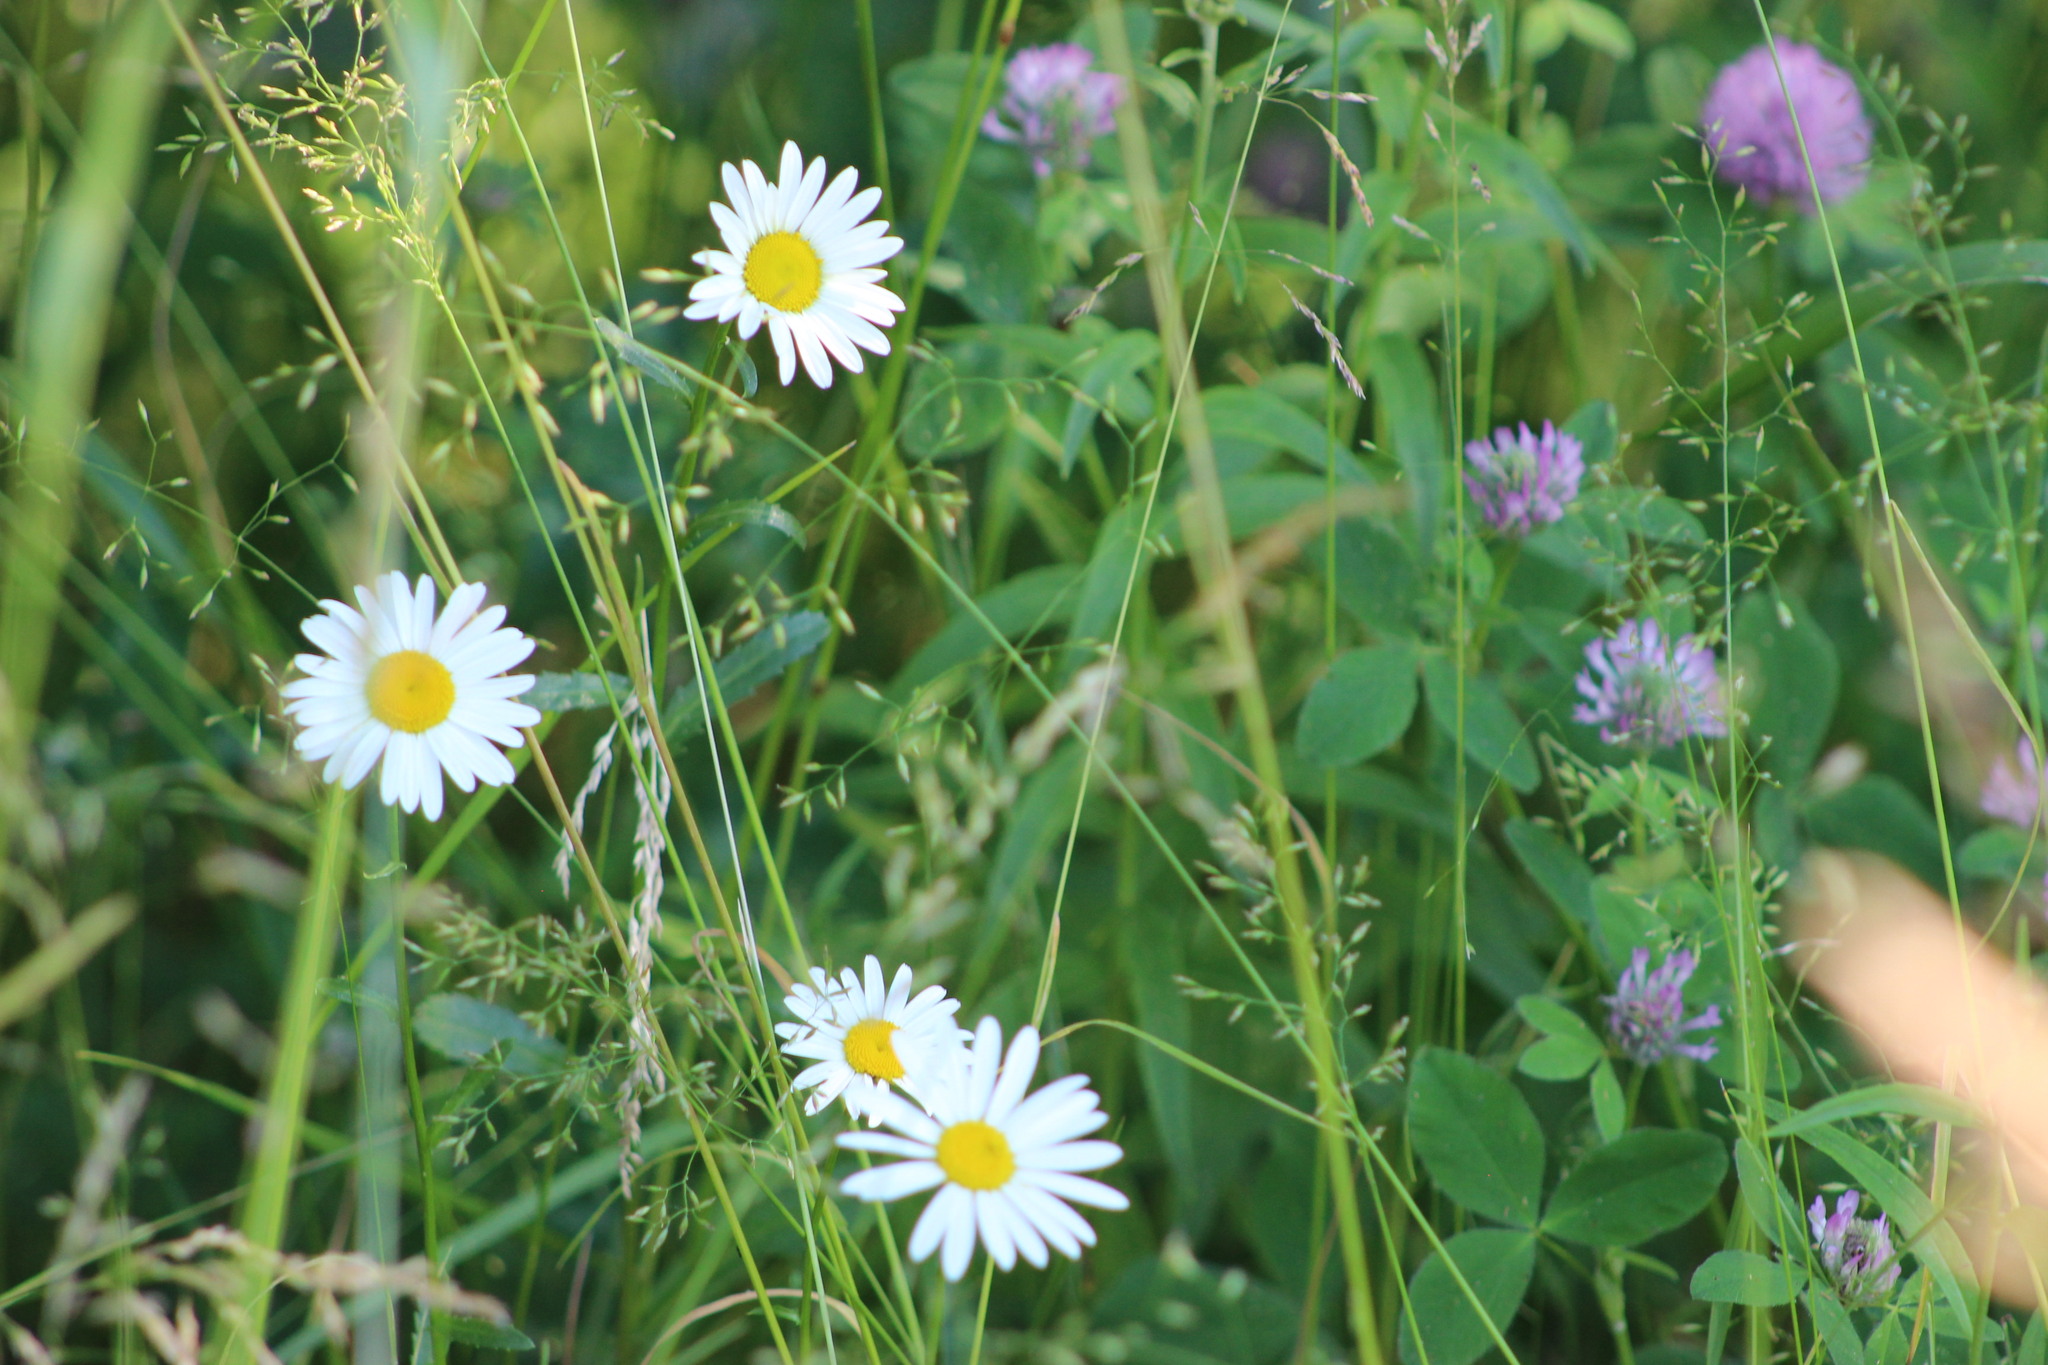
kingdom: Plantae
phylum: Tracheophyta
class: Magnoliopsida
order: Asterales
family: Asteraceae
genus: Leucanthemum
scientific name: Leucanthemum ircutianum
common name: Daisy
